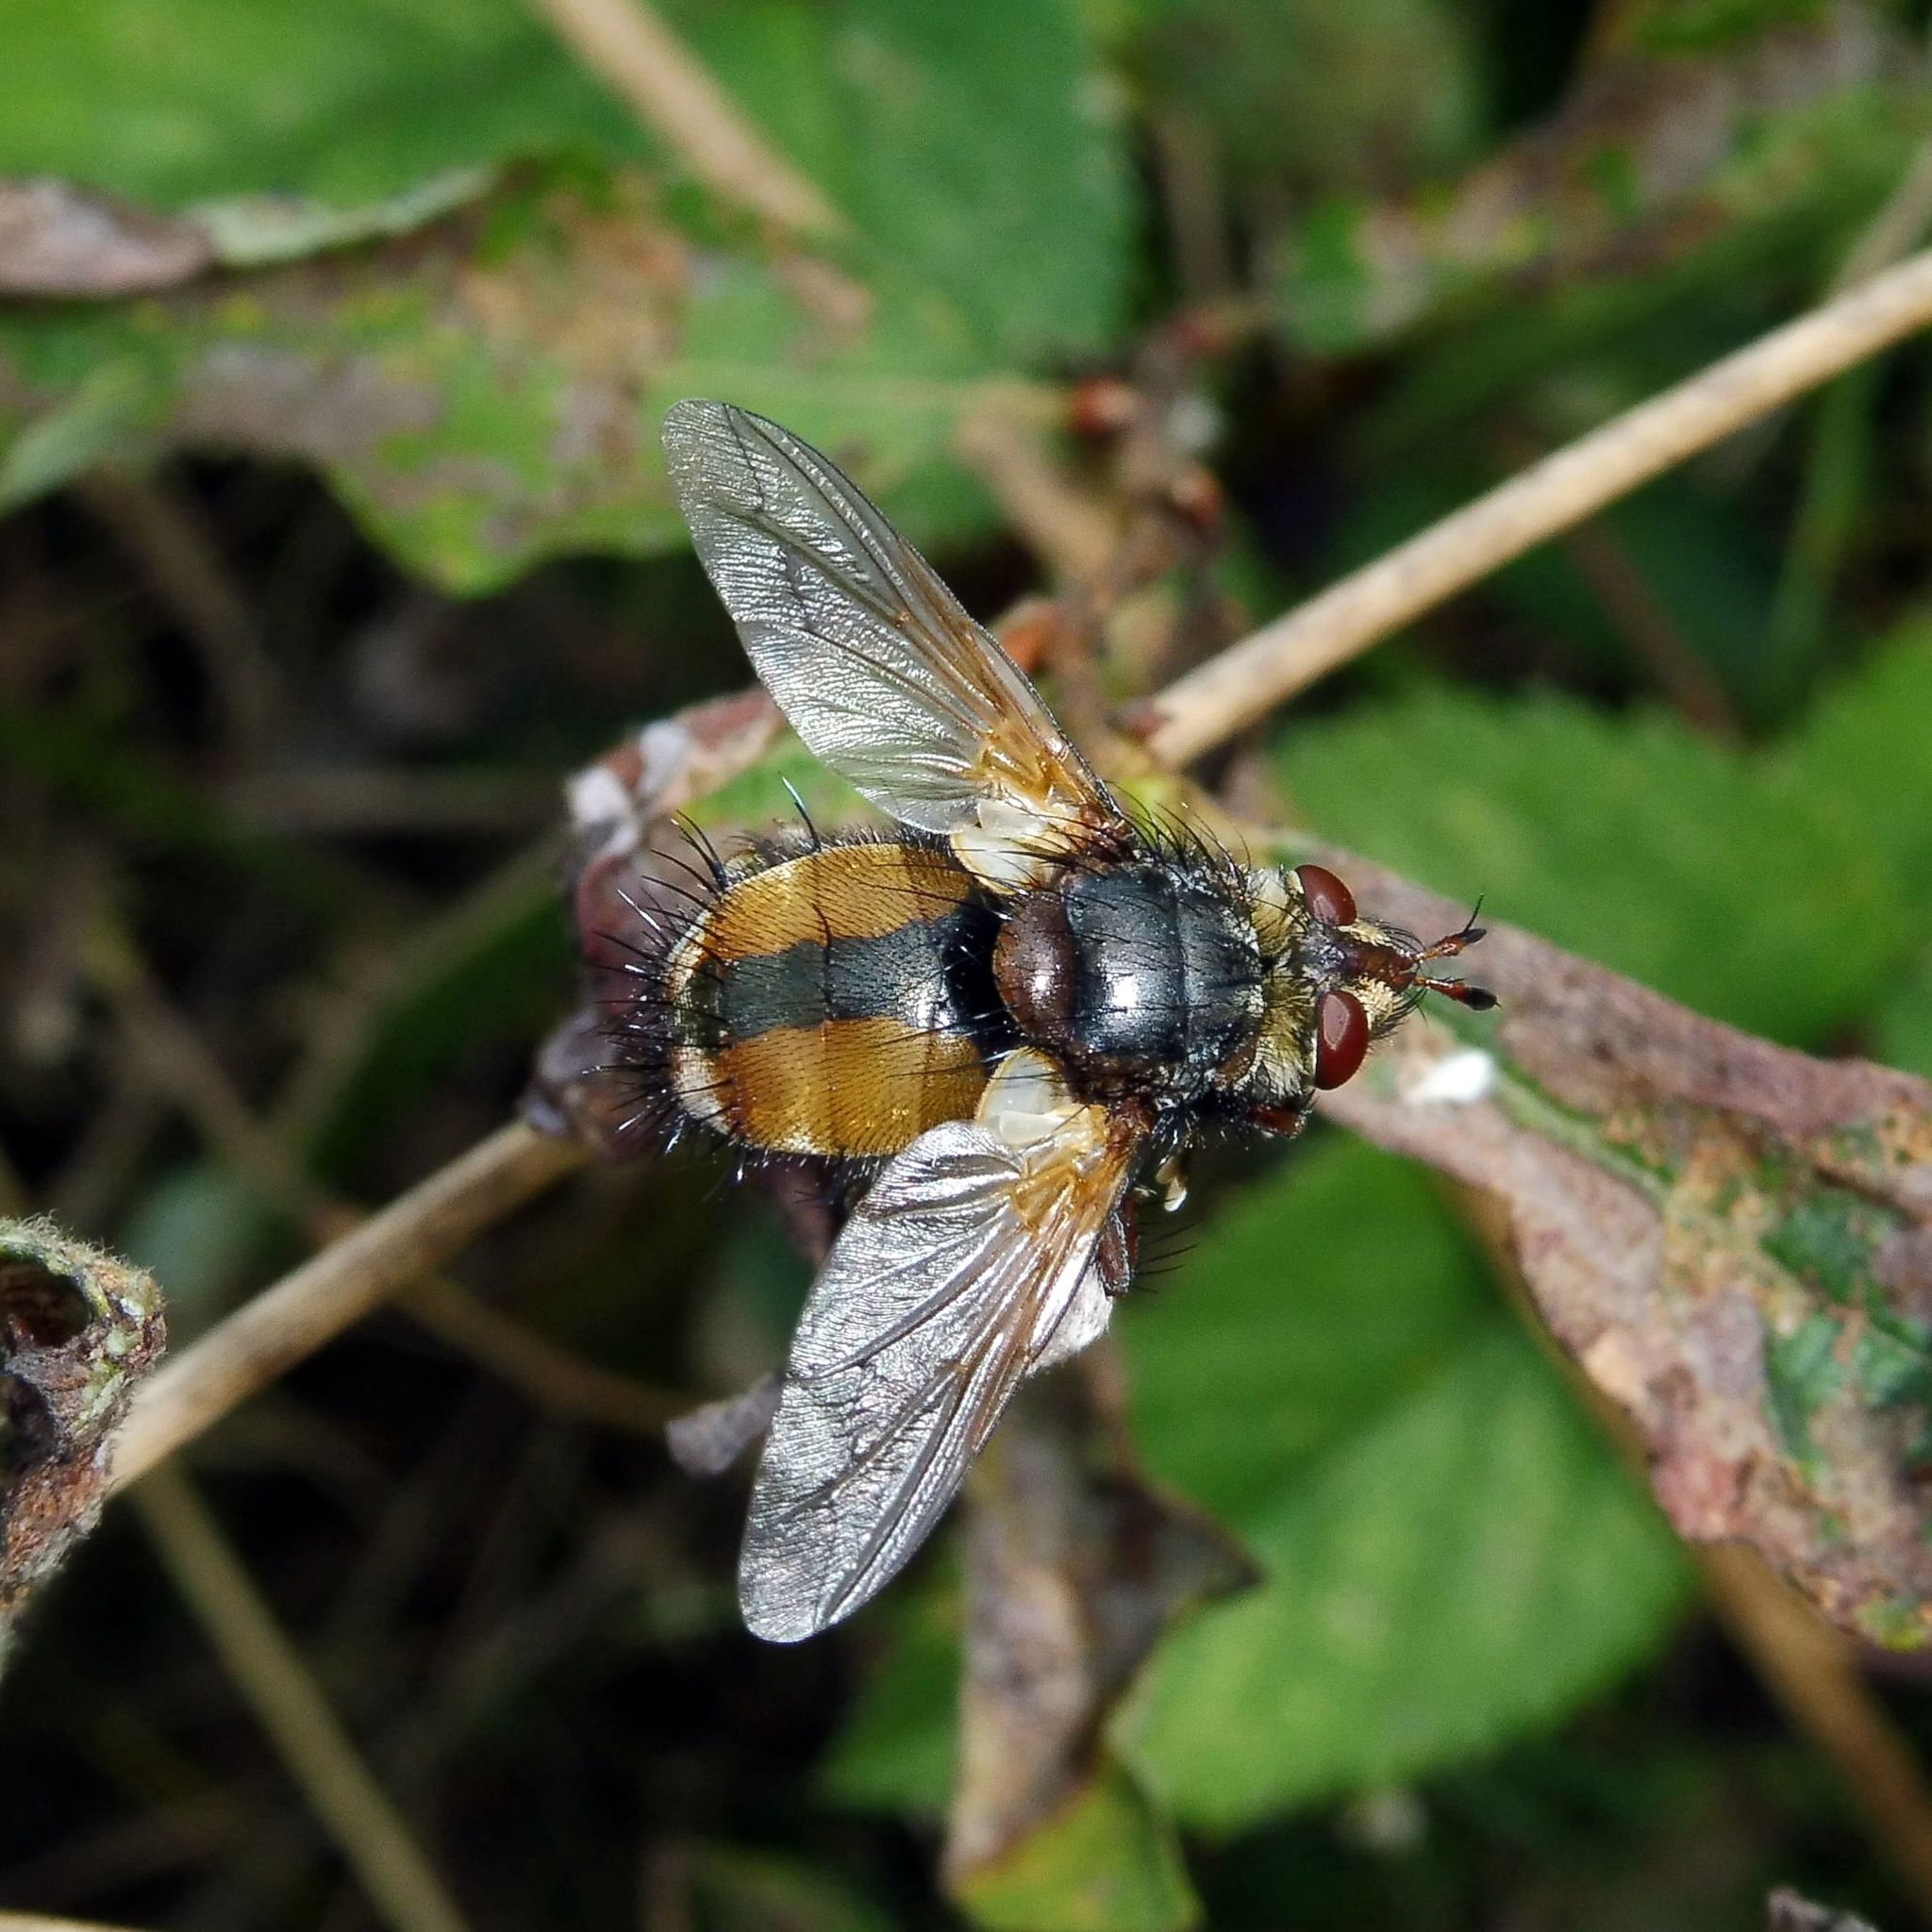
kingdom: Animalia
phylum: Arthropoda
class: Insecta
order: Diptera
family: Tachinidae
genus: Tachina
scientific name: Tachina fera
